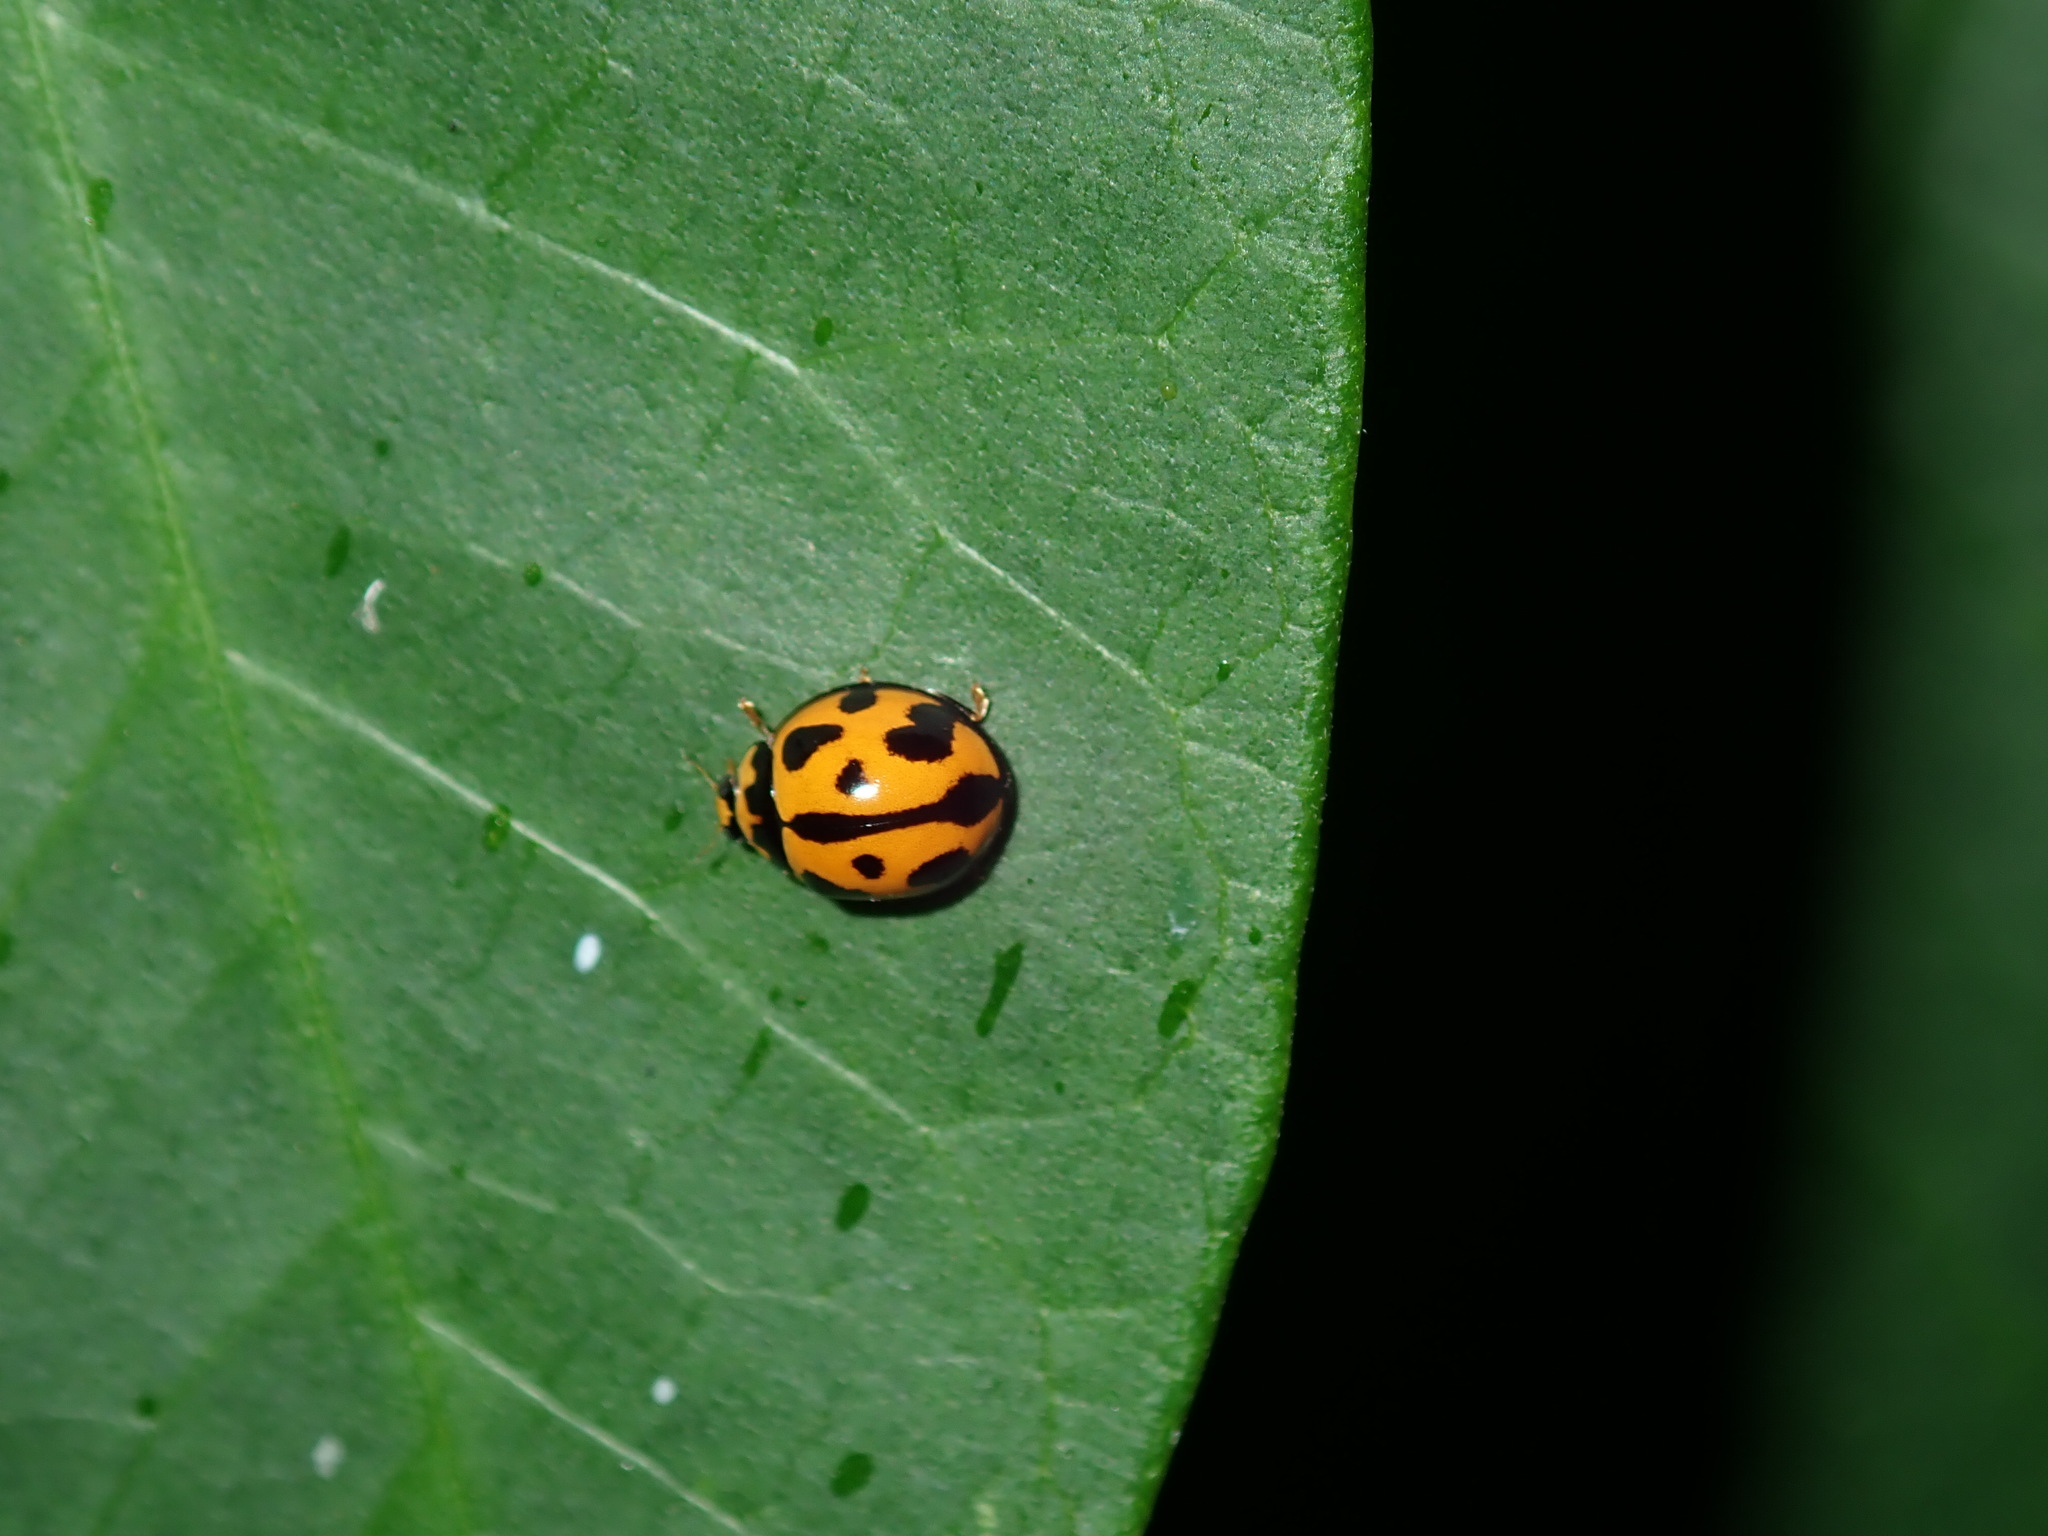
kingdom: Animalia
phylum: Arthropoda
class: Insecta
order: Coleoptera
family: Coccinellidae
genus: Coelophora
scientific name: Coelophora inaequalis
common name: Common australian lady beetle
